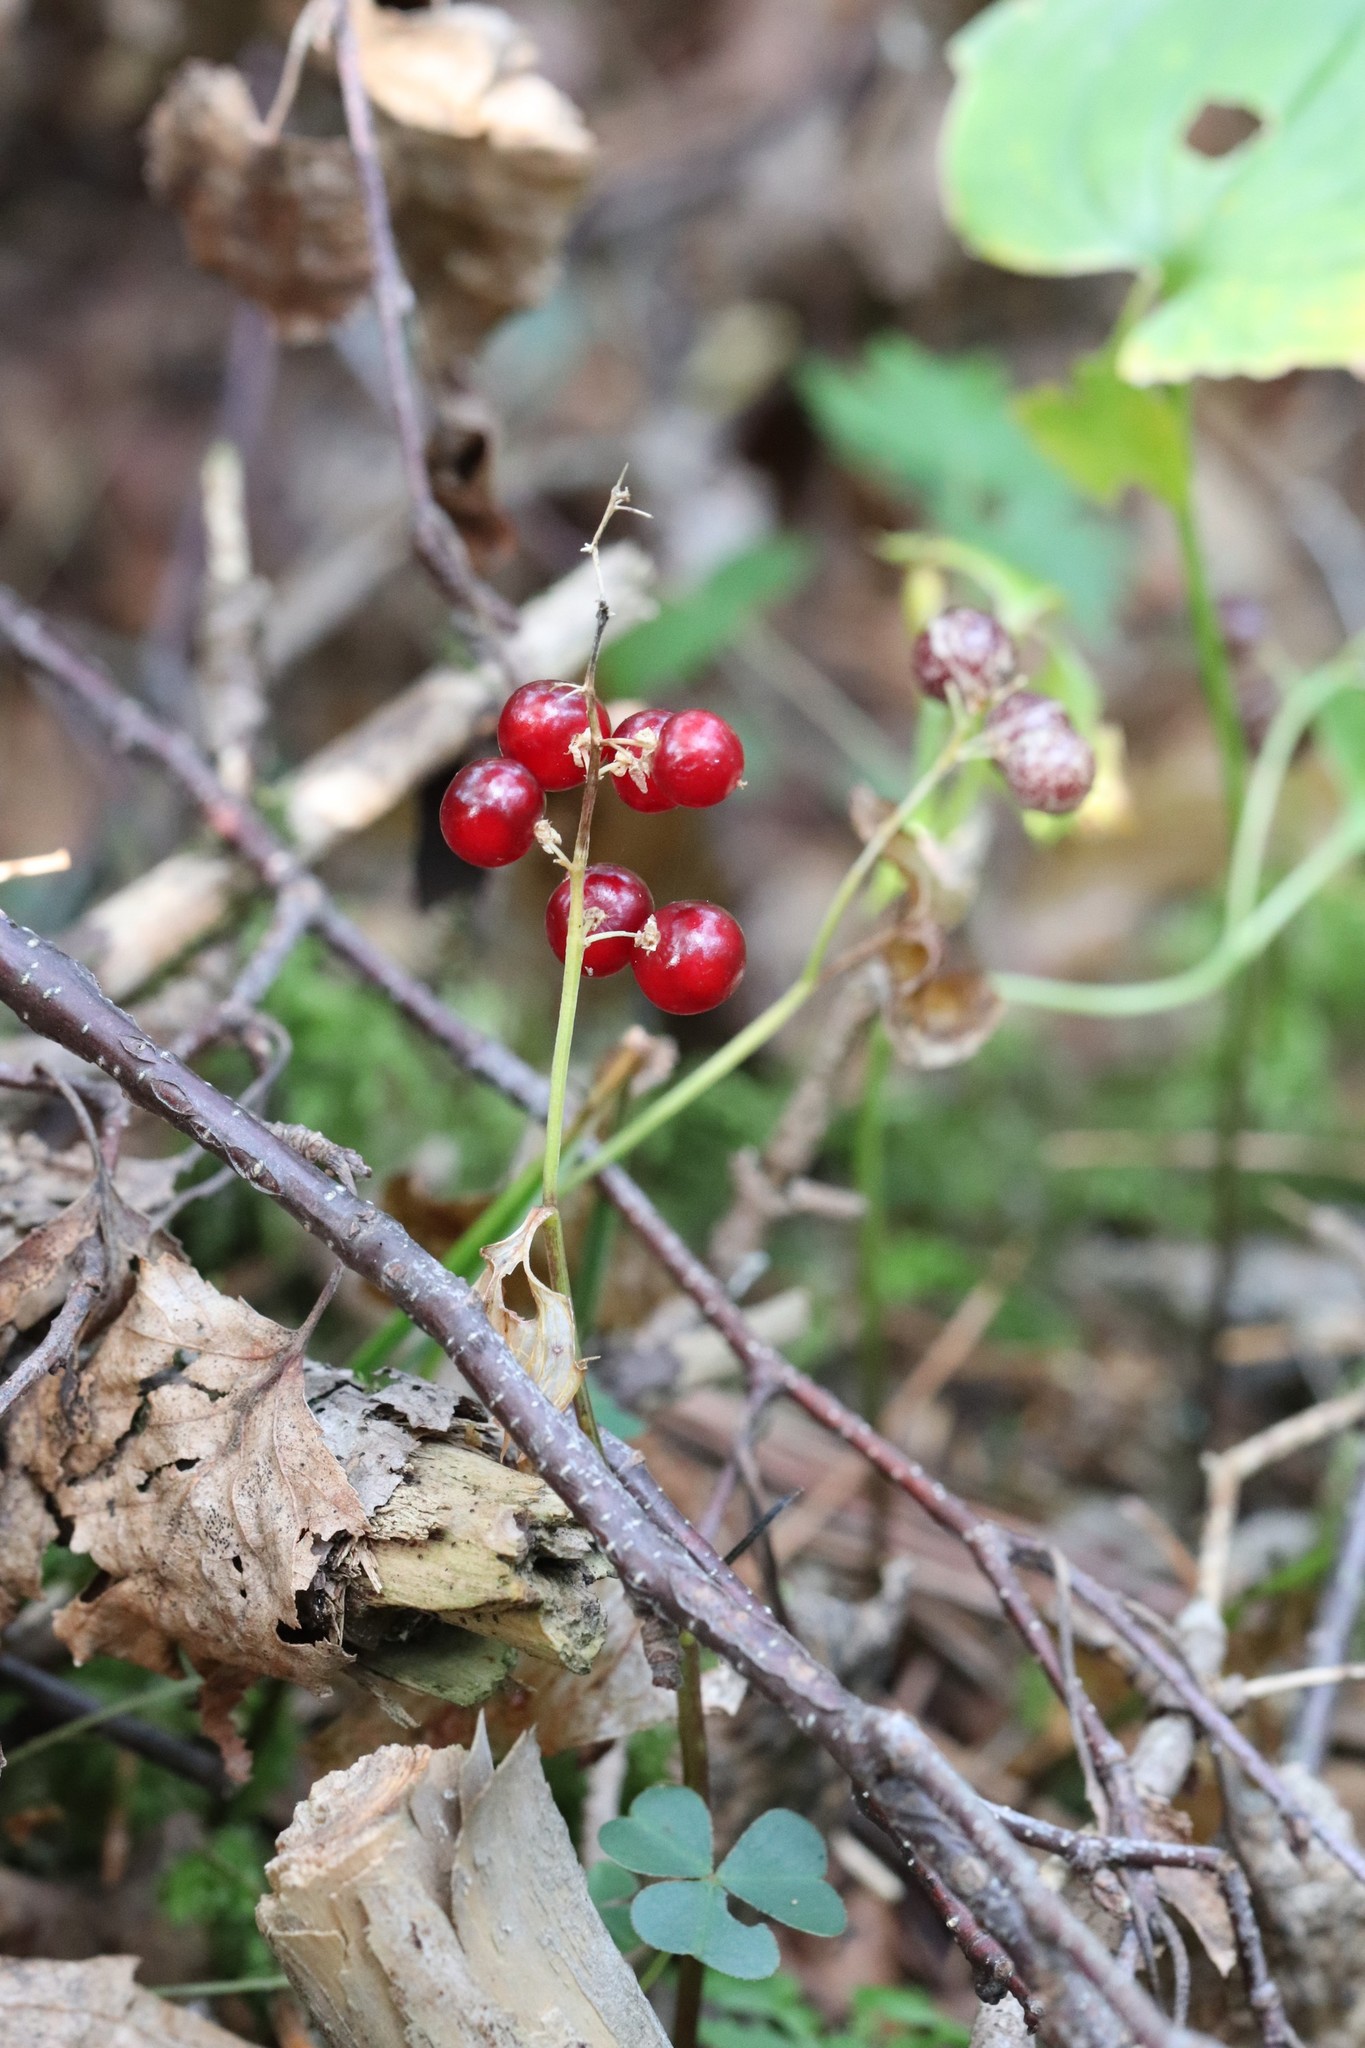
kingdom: Plantae
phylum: Tracheophyta
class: Liliopsida
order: Asparagales
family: Asparagaceae
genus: Maianthemum
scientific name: Maianthemum bifolium
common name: May lily
